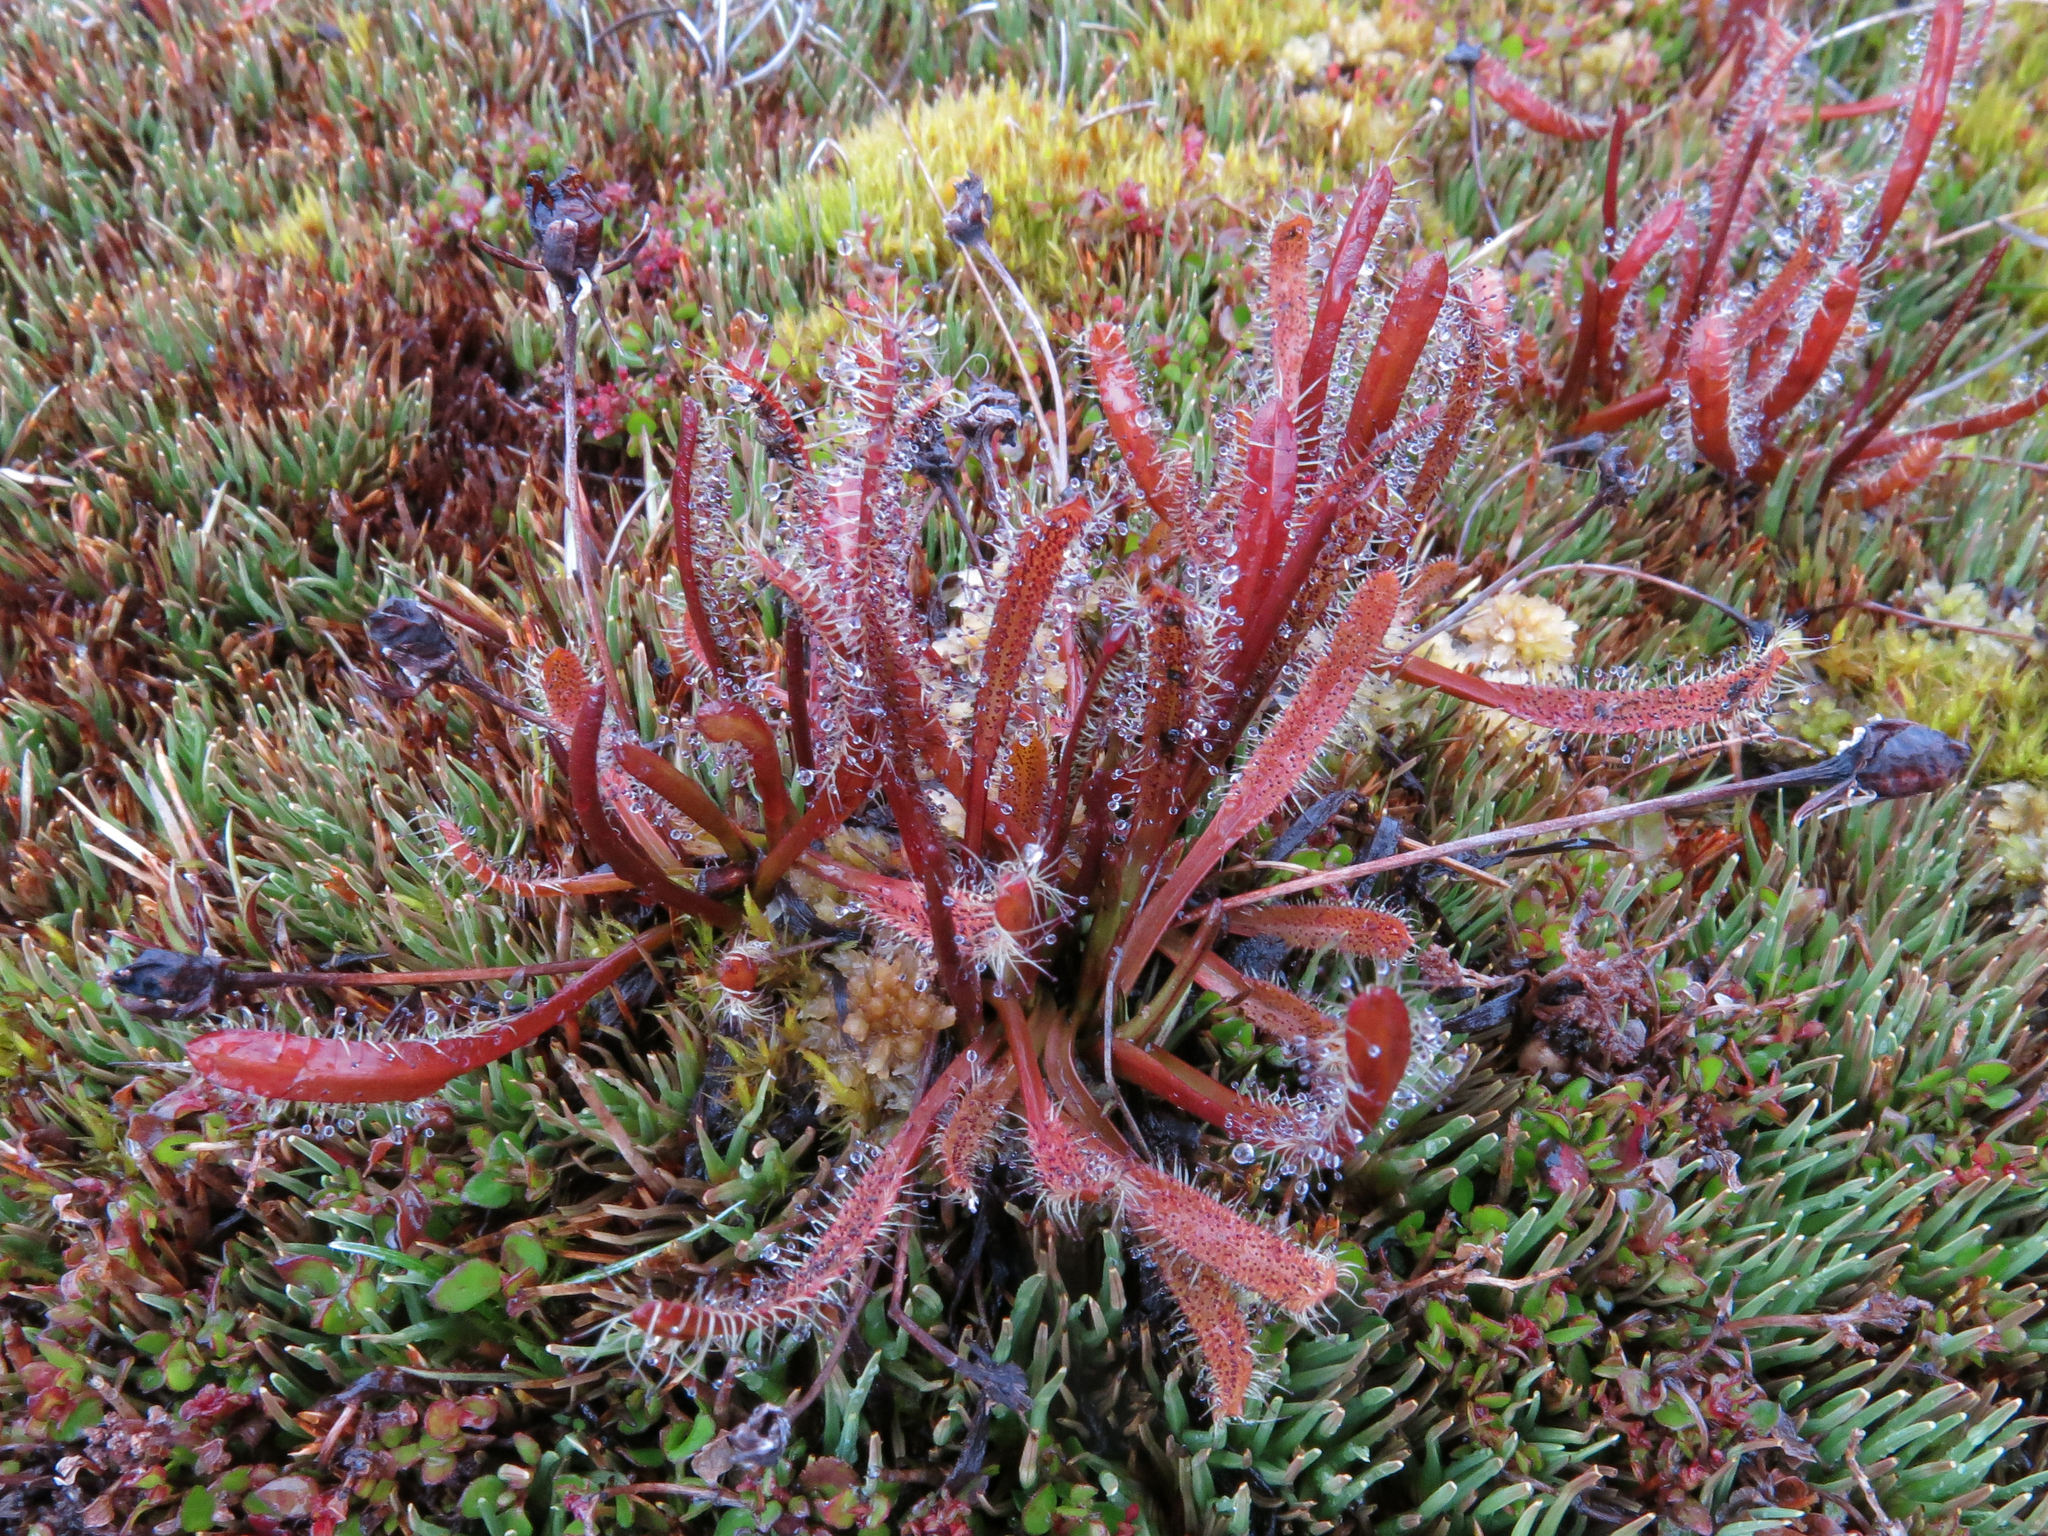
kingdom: Plantae
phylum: Tracheophyta
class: Magnoliopsida
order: Caryophyllales
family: Droseraceae
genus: Drosera
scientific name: Drosera arcturi
